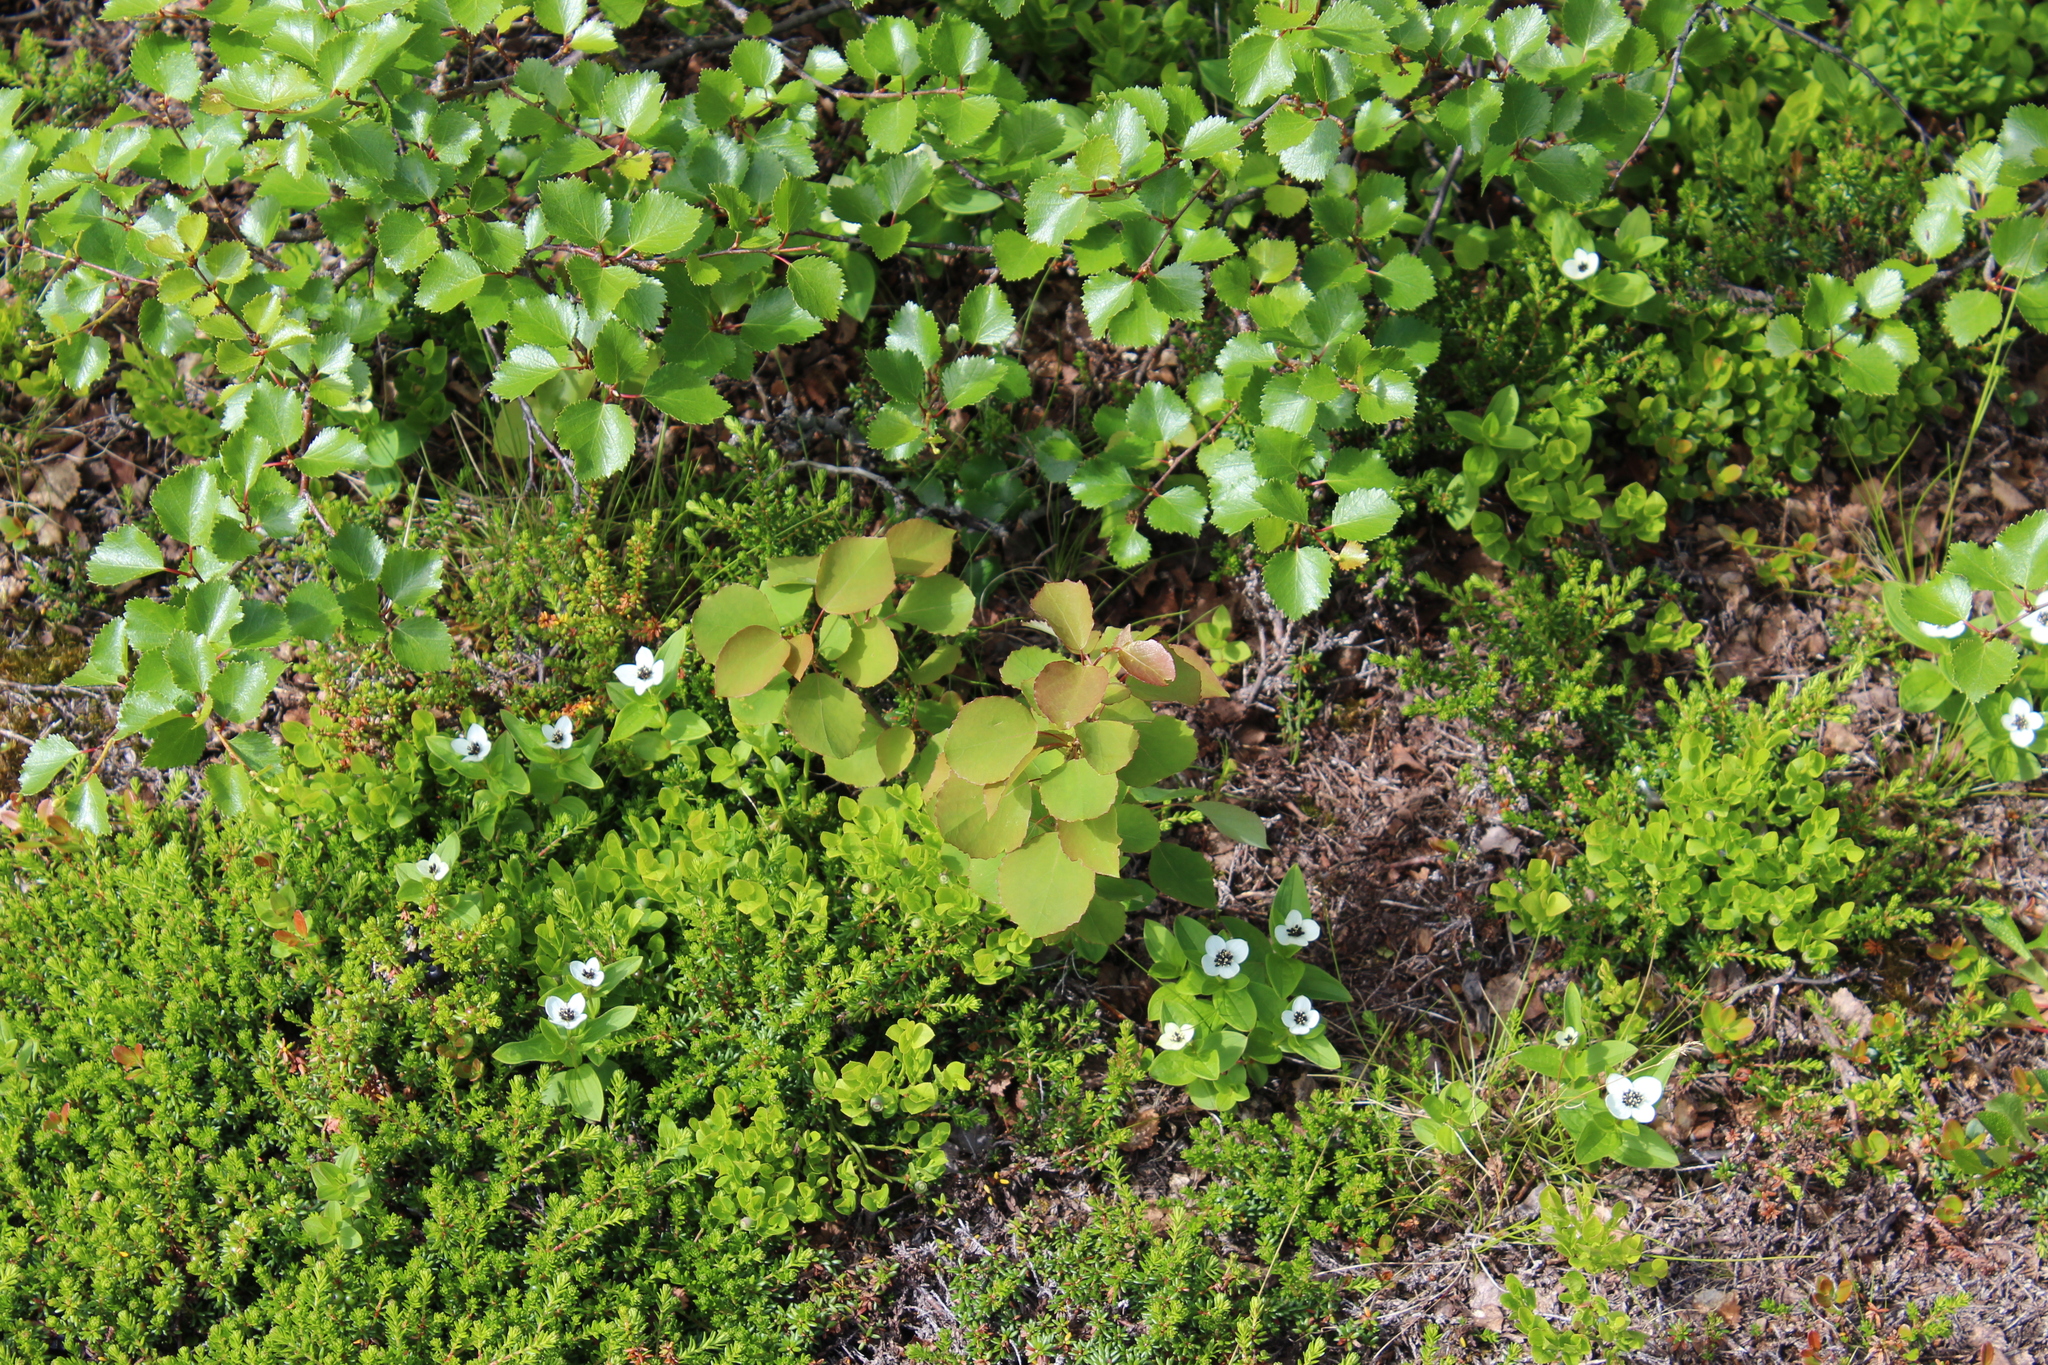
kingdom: Plantae
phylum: Tracheophyta
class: Magnoliopsida
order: Malpighiales
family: Salicaceae
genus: Populus
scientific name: Populus tremula
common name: European aspen
